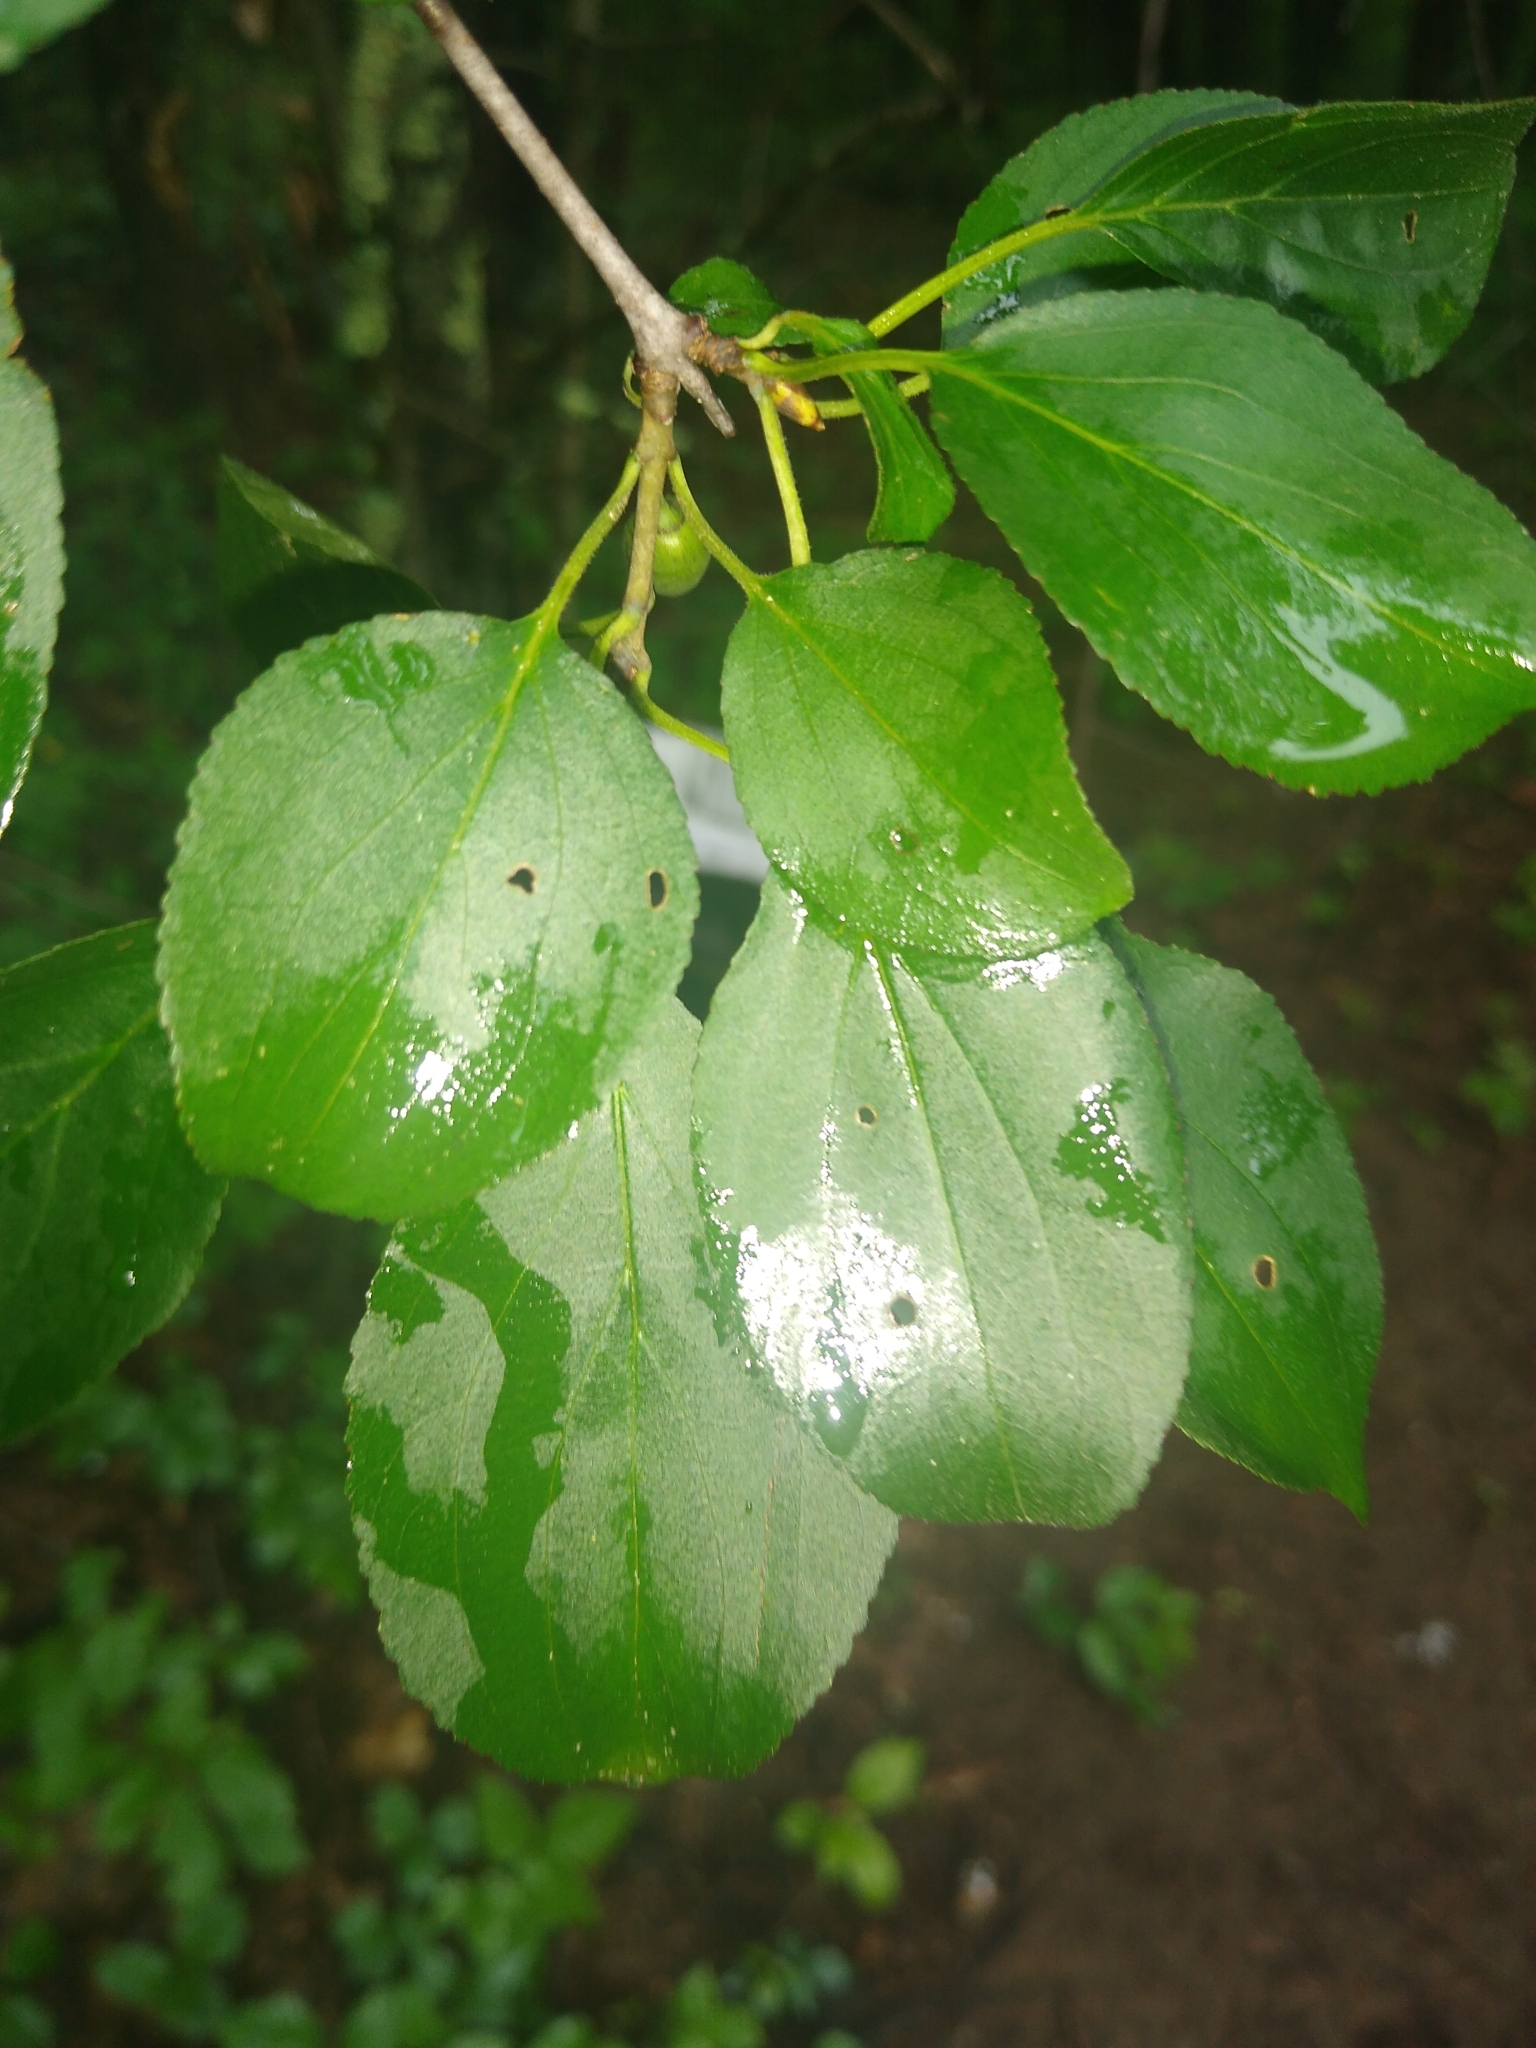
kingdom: Plantae
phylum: Tracheophyta
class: Magnoliopsida
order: Rosales
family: Rhamnaceae
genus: Rhamnus
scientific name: Rhamnus cathartica
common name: Common buckthorn
